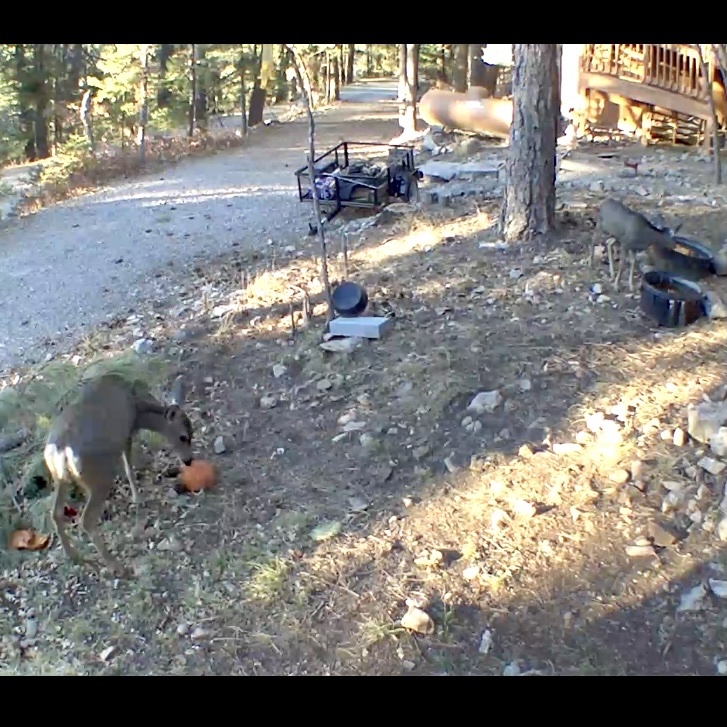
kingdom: Animalia
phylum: Chordata
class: Mammalia
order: Artiodactyla
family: Cervidae
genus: Odocoileus
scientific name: Odocoileus hemionus
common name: Mule deer
